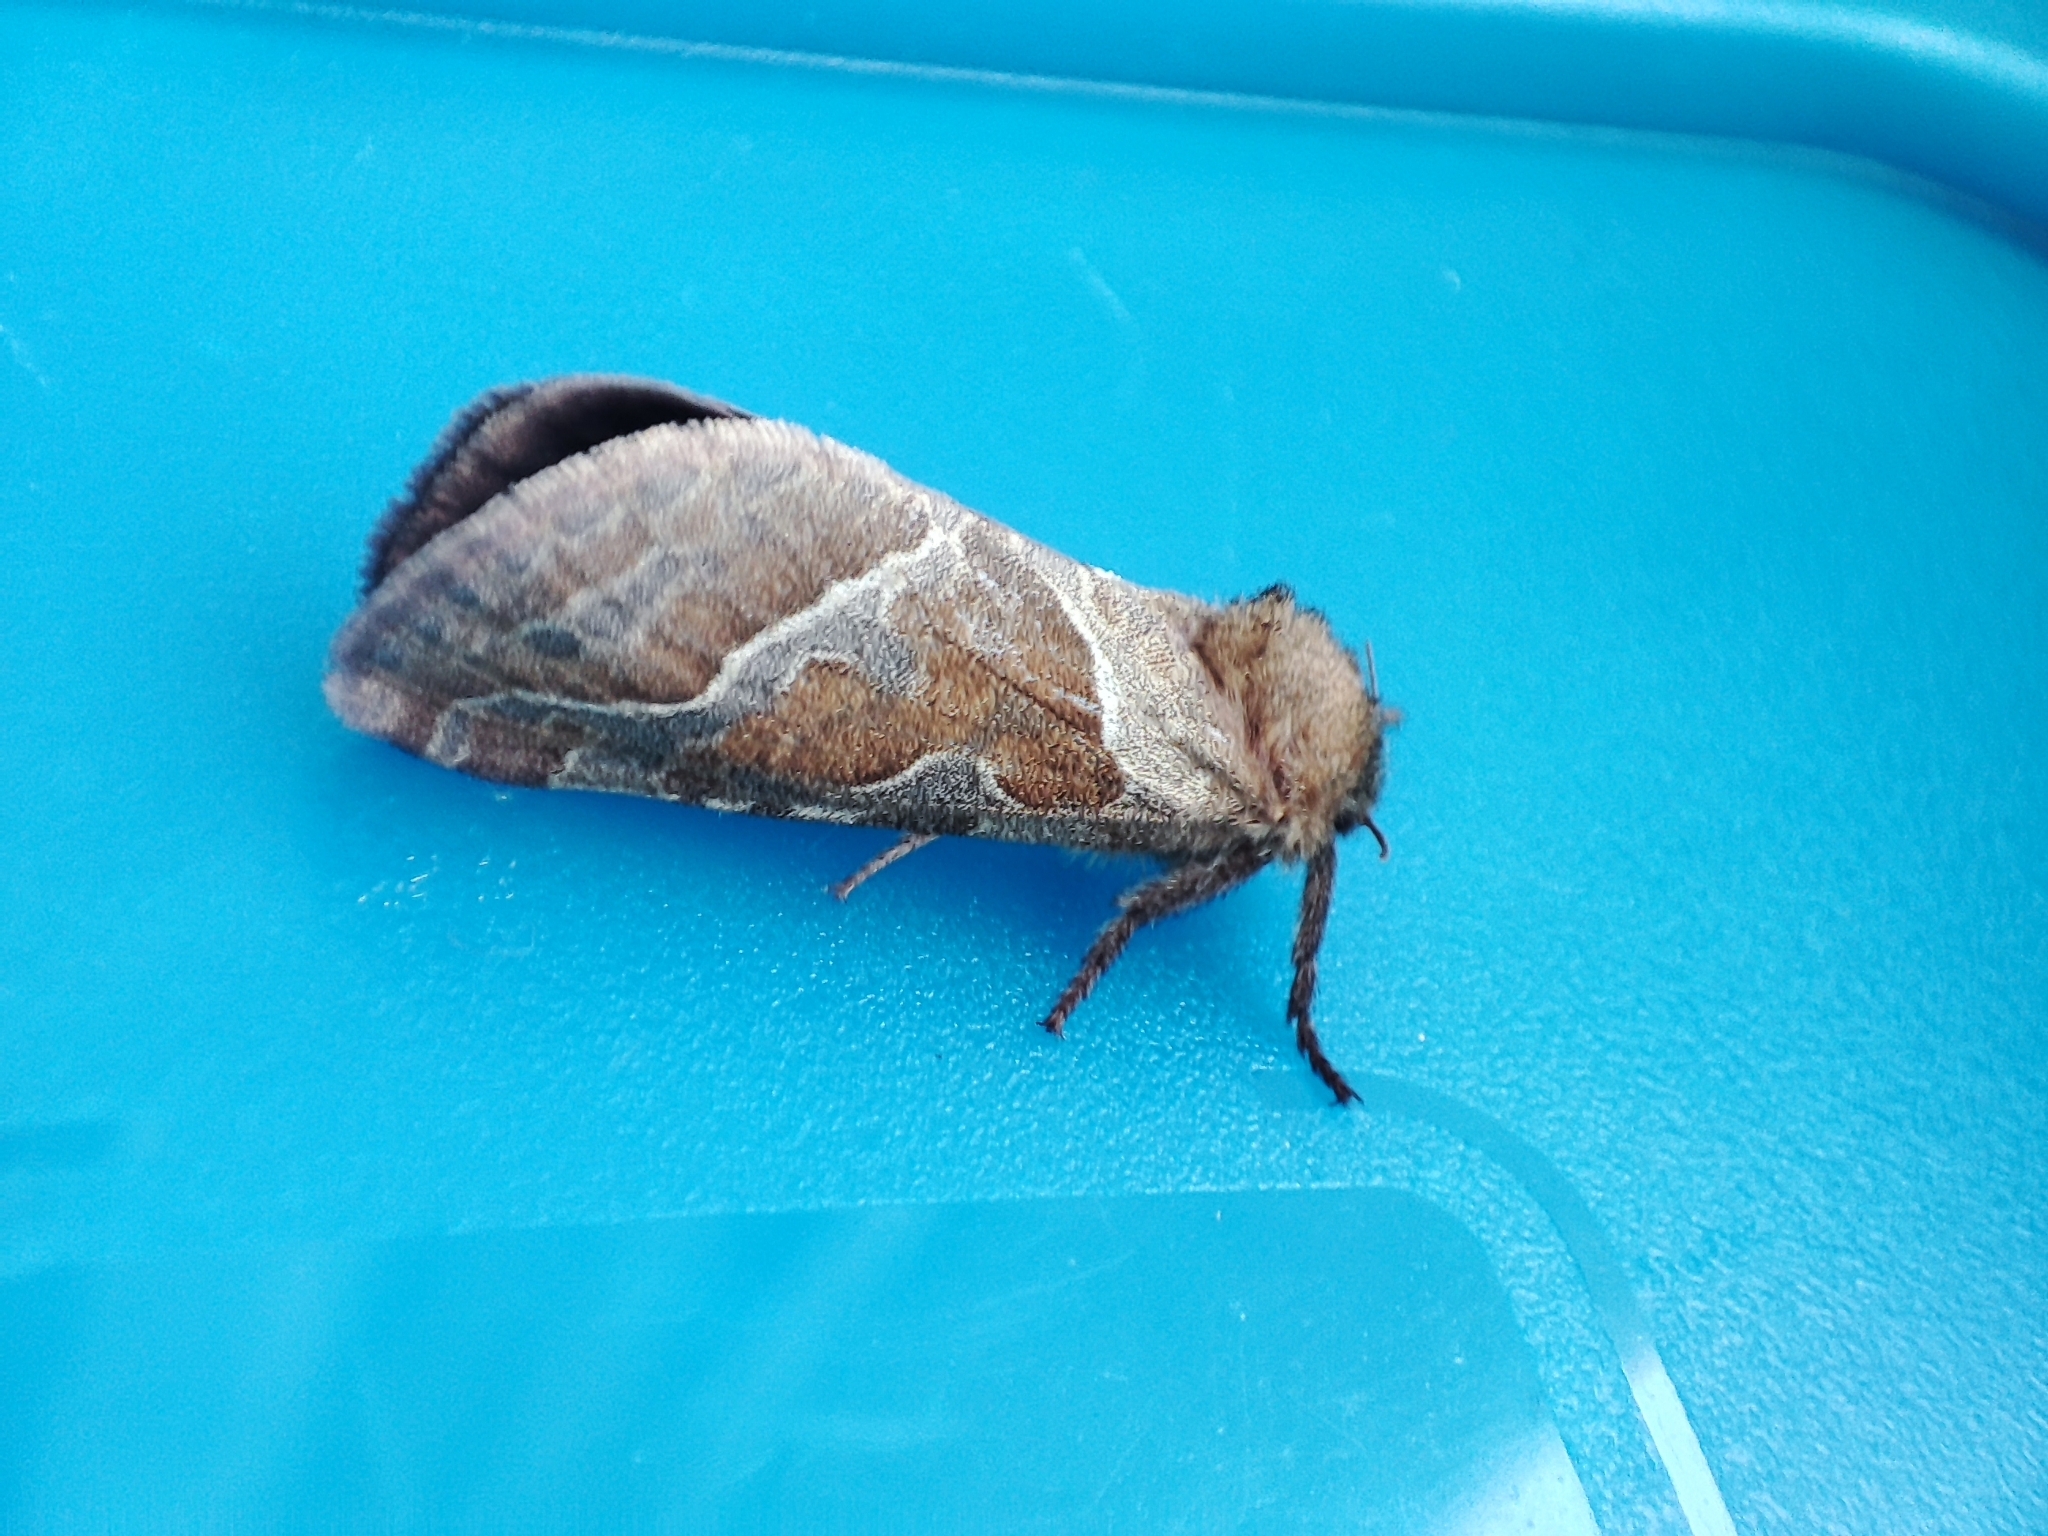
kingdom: Animalia
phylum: Arthropoda
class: Insecta
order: Lepidoptera
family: Hepialidae
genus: Triodia
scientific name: Triodia sylvina
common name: Orange swift
